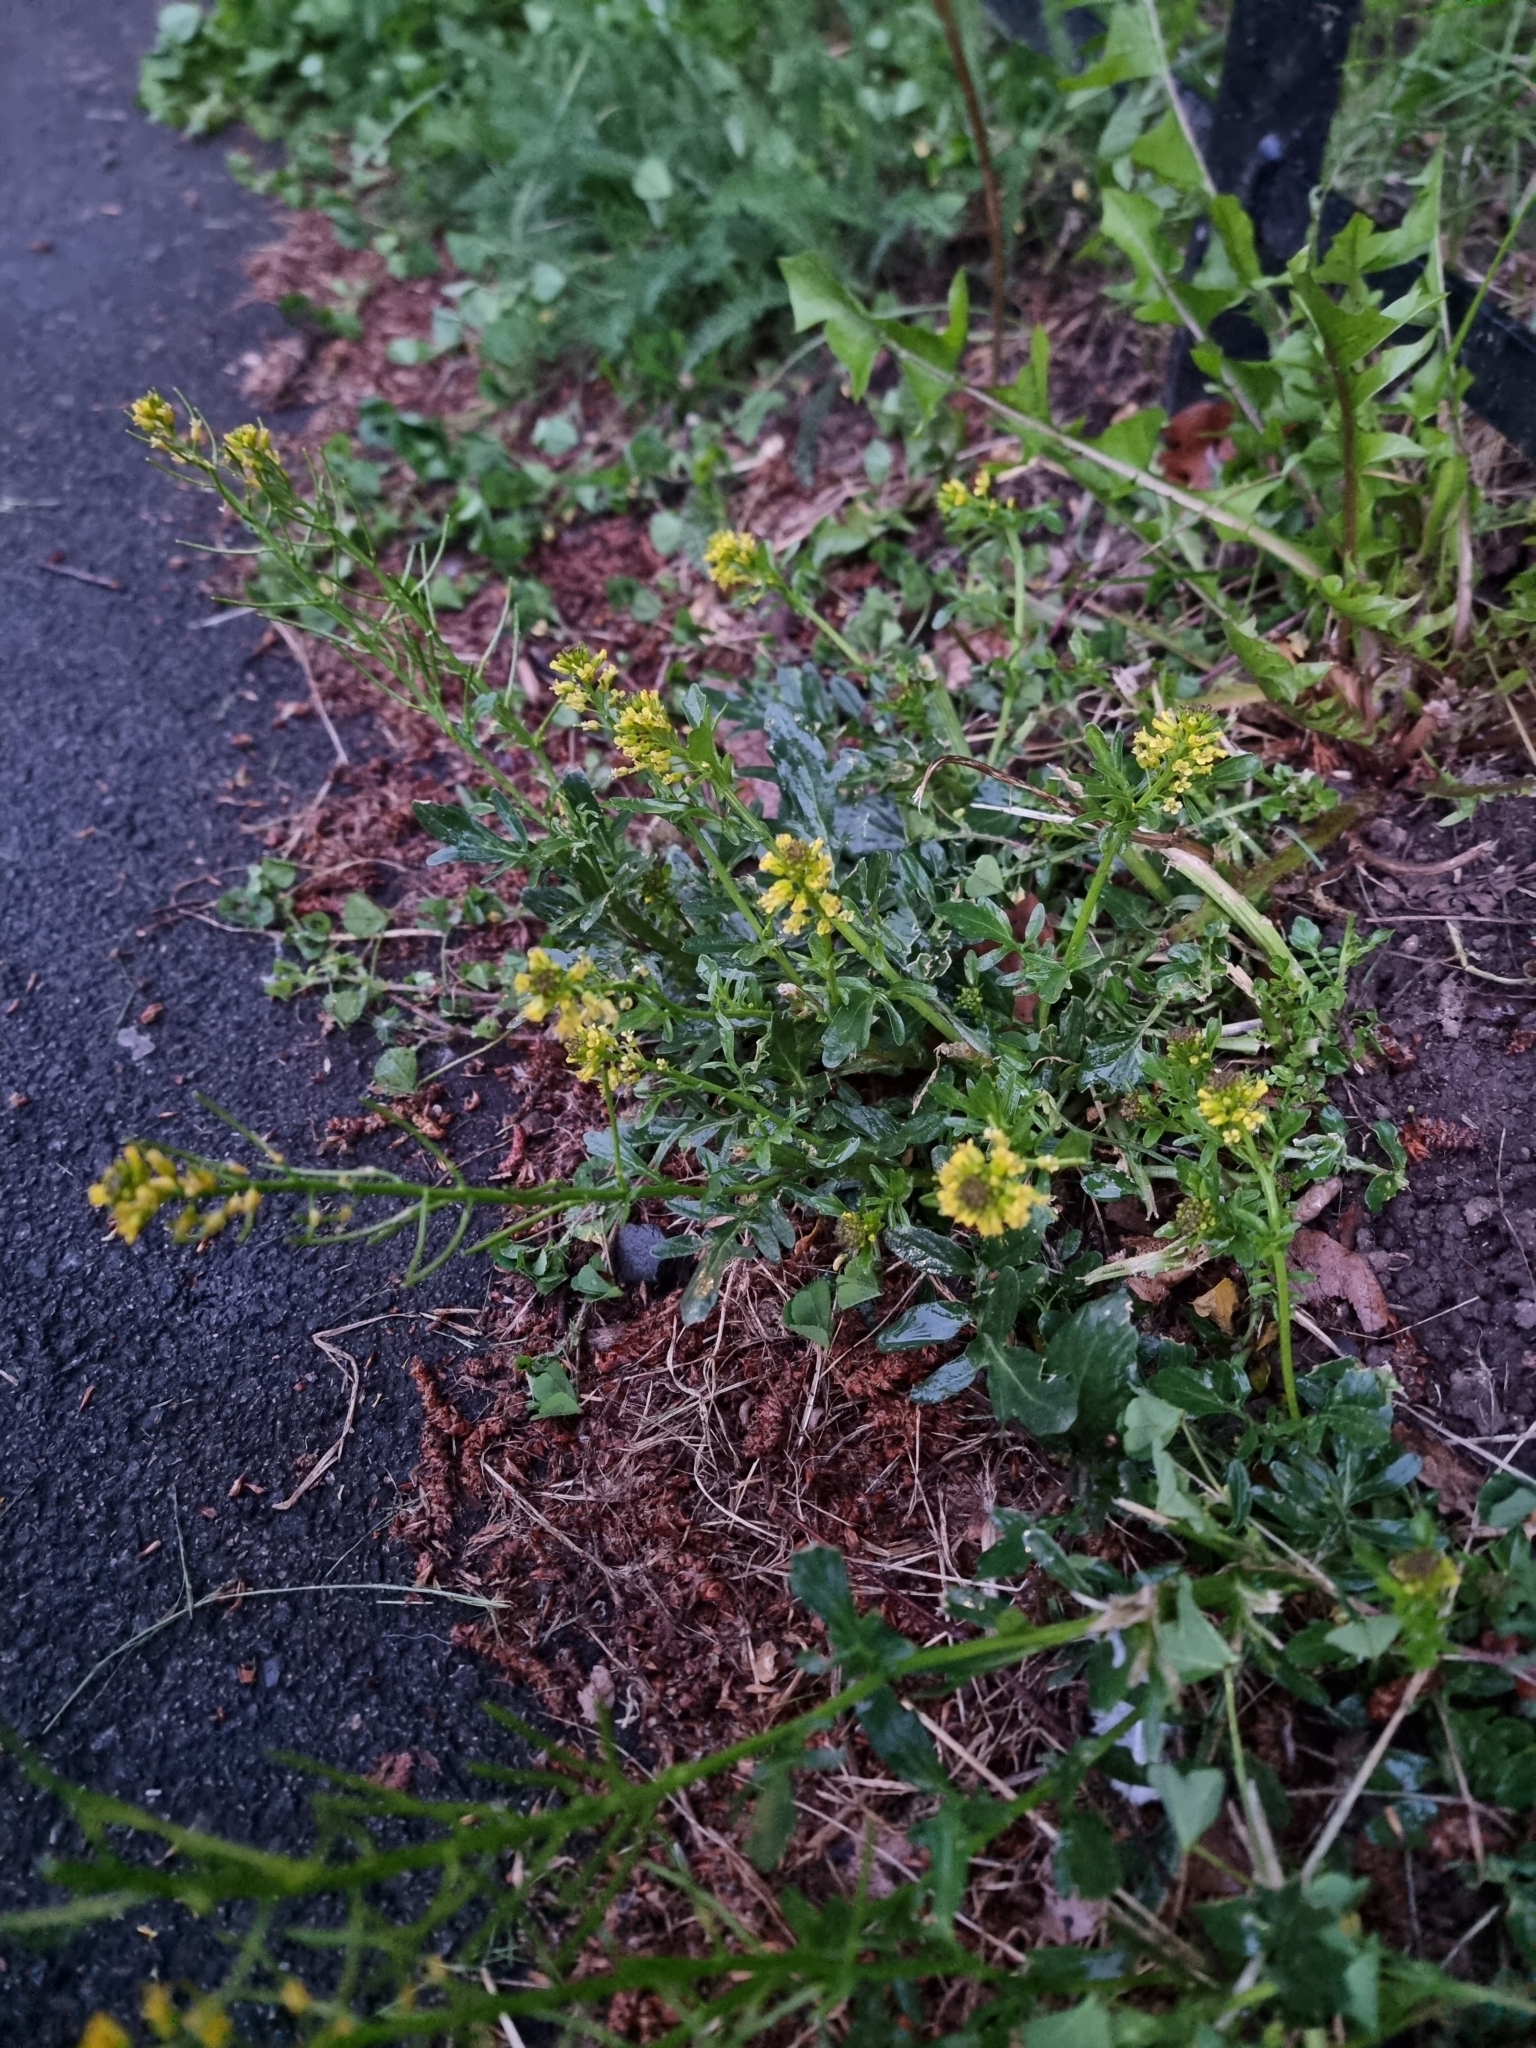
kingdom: Plantae
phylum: Tracheophyta
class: Magnoliopsida
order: Brassicales
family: Brassicaceae
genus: Barbarea
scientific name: Barbarea intermedia
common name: Medium-flowered winter-cress
